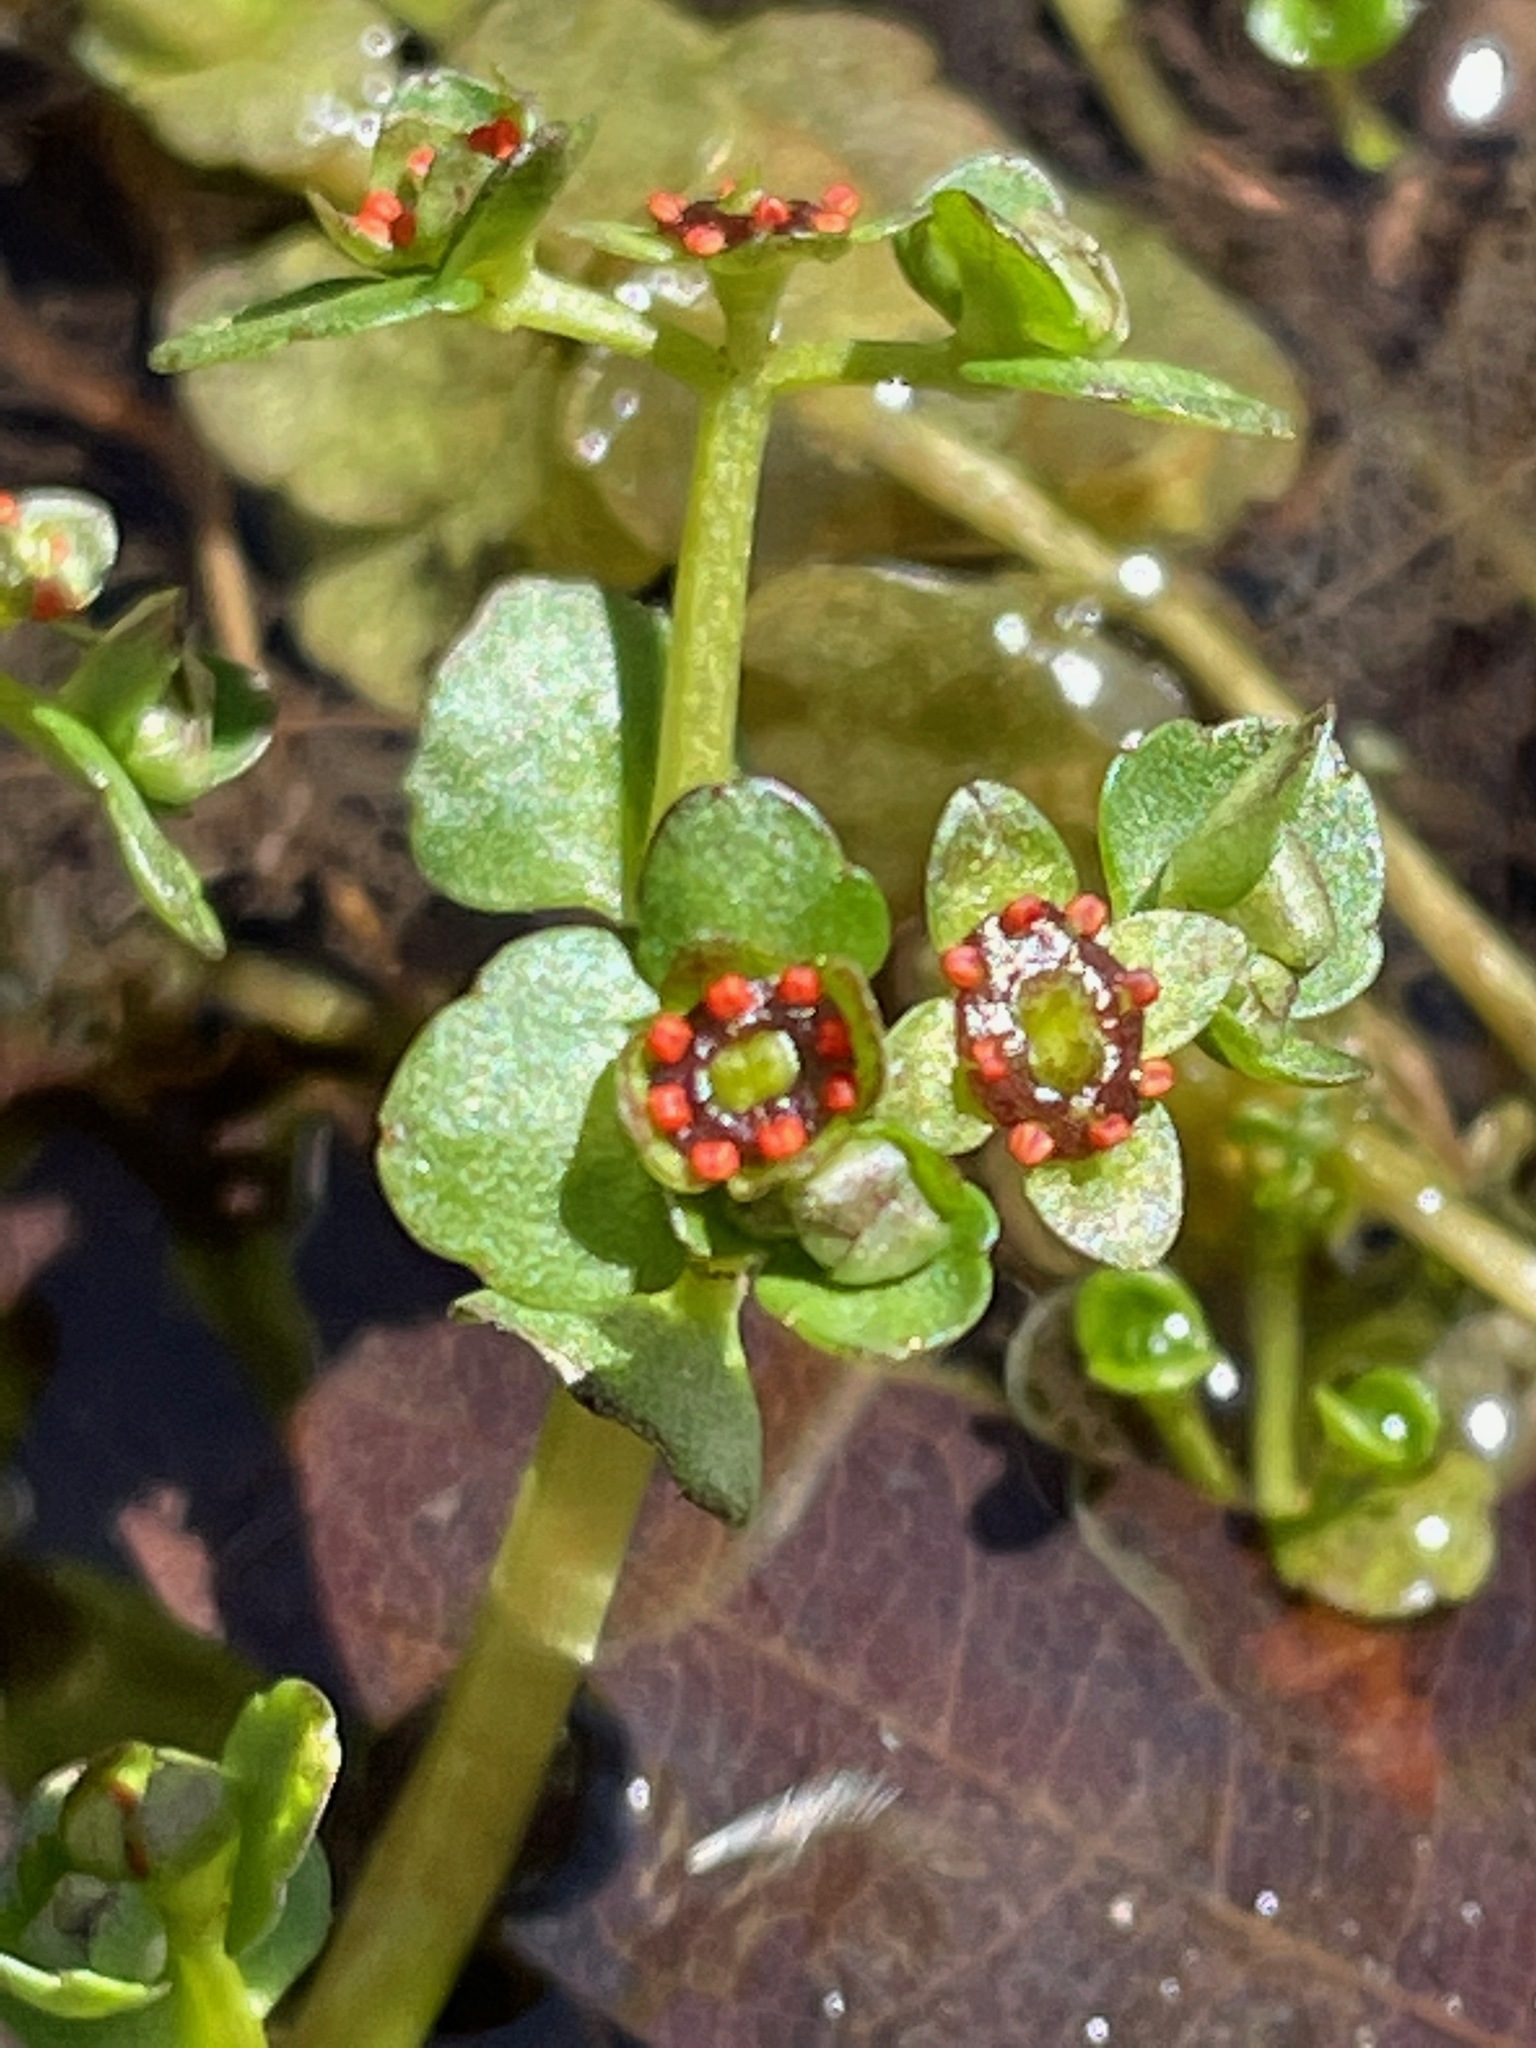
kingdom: Plantae
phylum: Tracheophyta
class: Magnoliopsida
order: Saxifragales
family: Saxifragaceae
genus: Chrysosplenium
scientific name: Chrysosplenium americanum
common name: American golden-saxifrage
